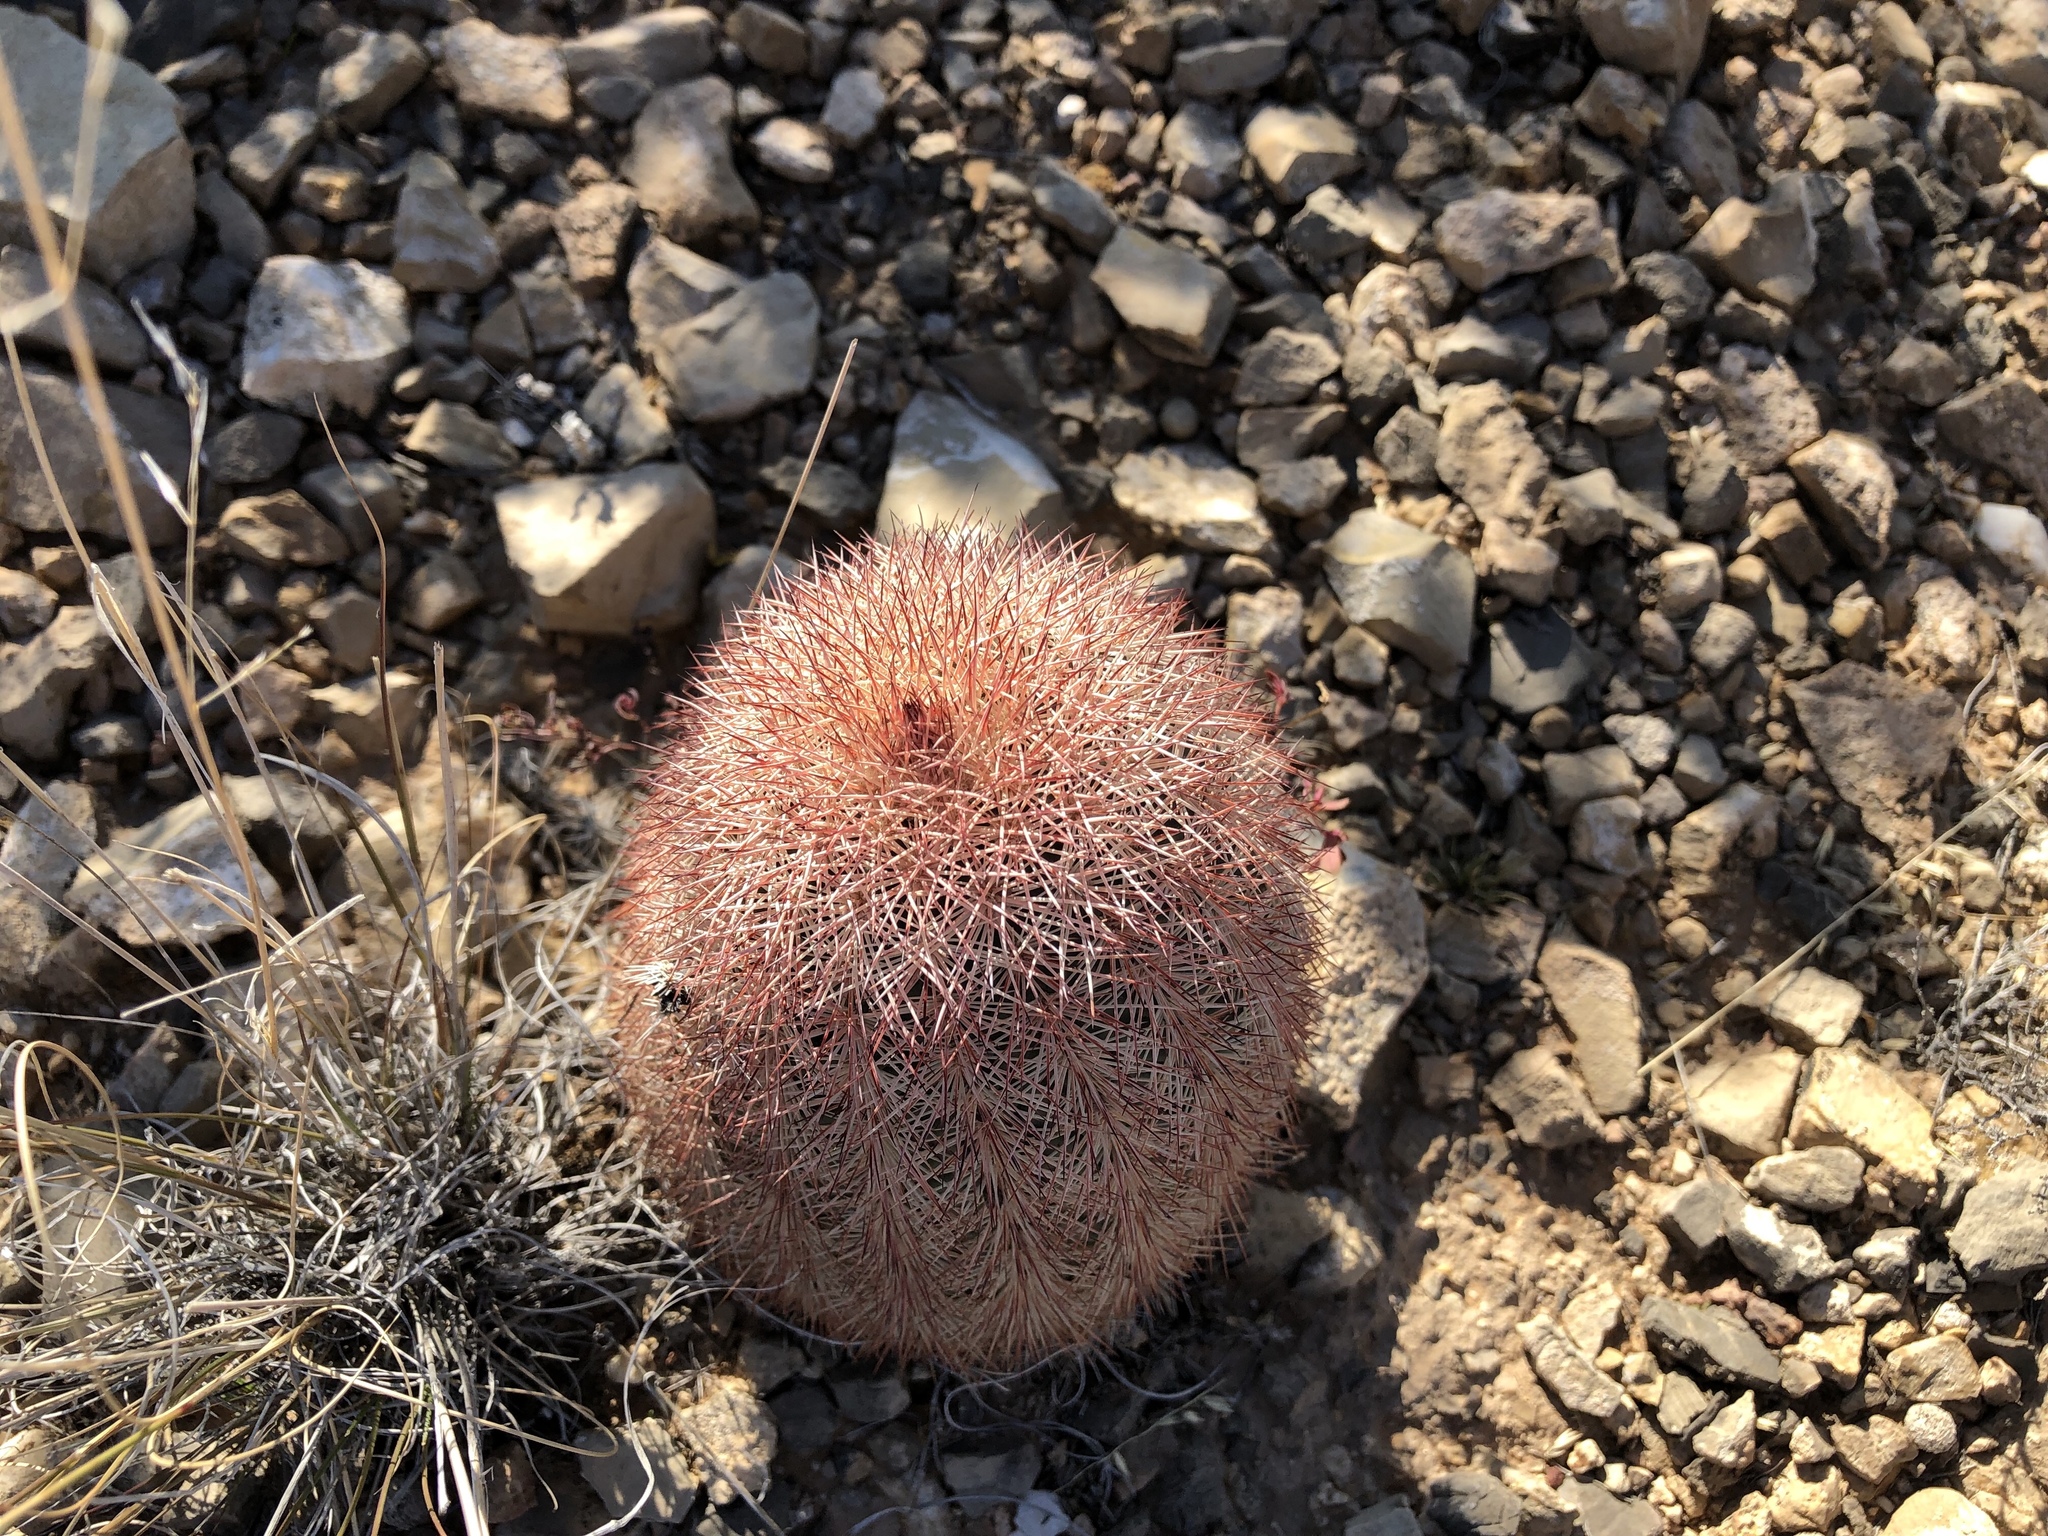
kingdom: Plantae
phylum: Tracheophyta
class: Magnoliopsida
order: Caryophyllales
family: Cactaceae
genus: Echinocereus
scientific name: Echinocereus dasyacanthus
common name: Spiny hedgehog cactus
